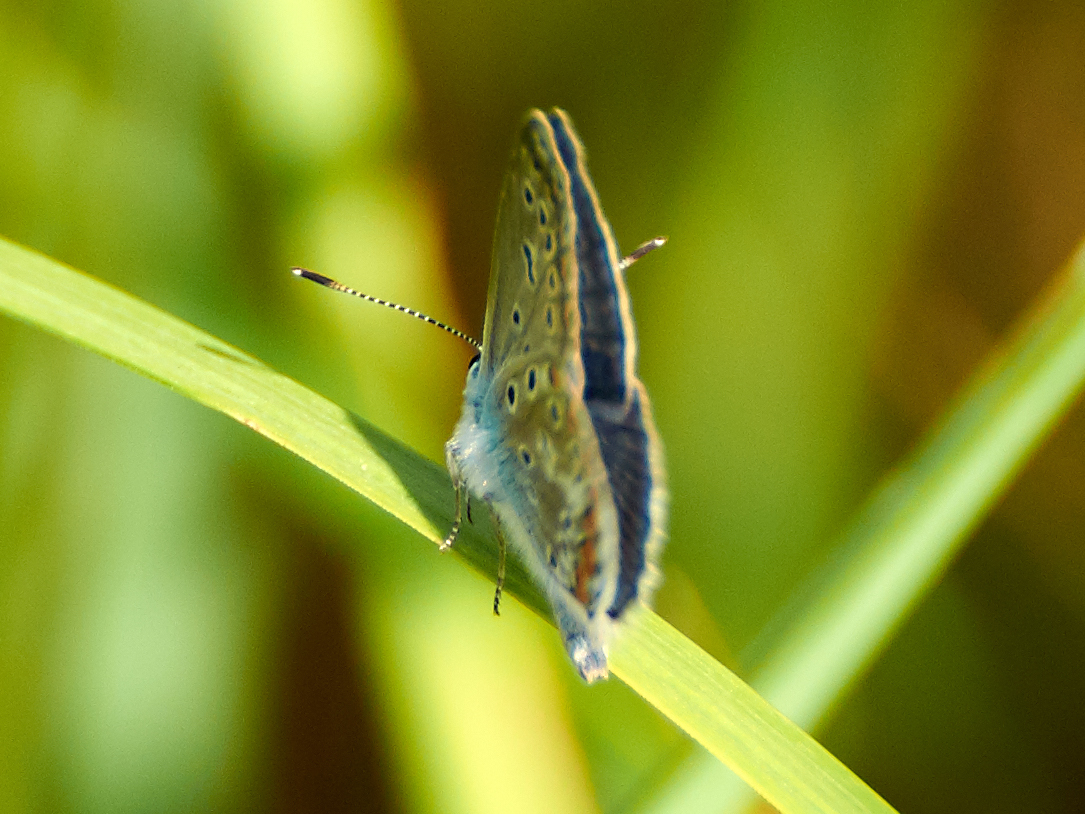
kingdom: Animalia
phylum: Arthropoda
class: Insecta
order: Lepidoptera
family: Lycaenidae
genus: Polyommatus
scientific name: Polyommatus icarus
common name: Common blue
